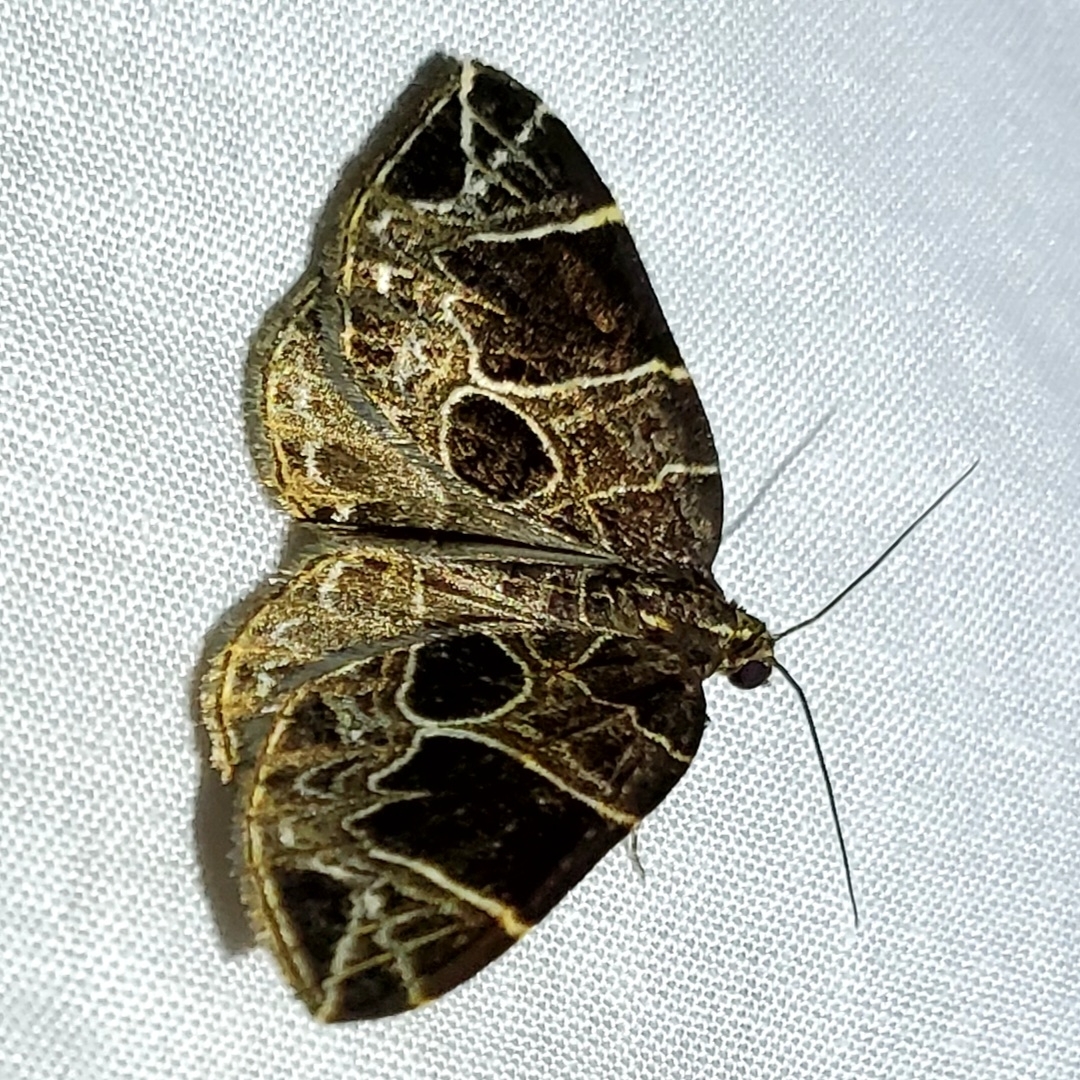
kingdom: Animalia
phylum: Arthropoda
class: Insecta
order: Lepidoptera
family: Geometridae
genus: Ecliptopera
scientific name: Ecliptopera atricolorata
